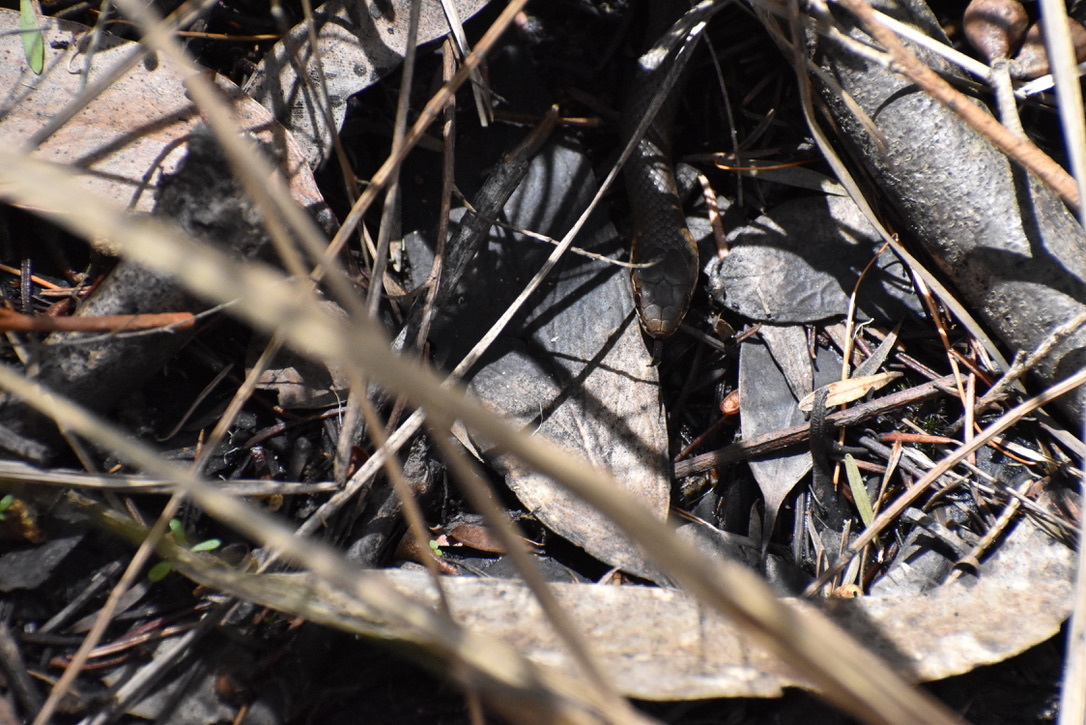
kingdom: Animalia
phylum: Chordata
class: Squamata
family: Elapidae
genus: Hemiaspis
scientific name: Hemiaspis signata
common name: Black-bellied swamp snake
